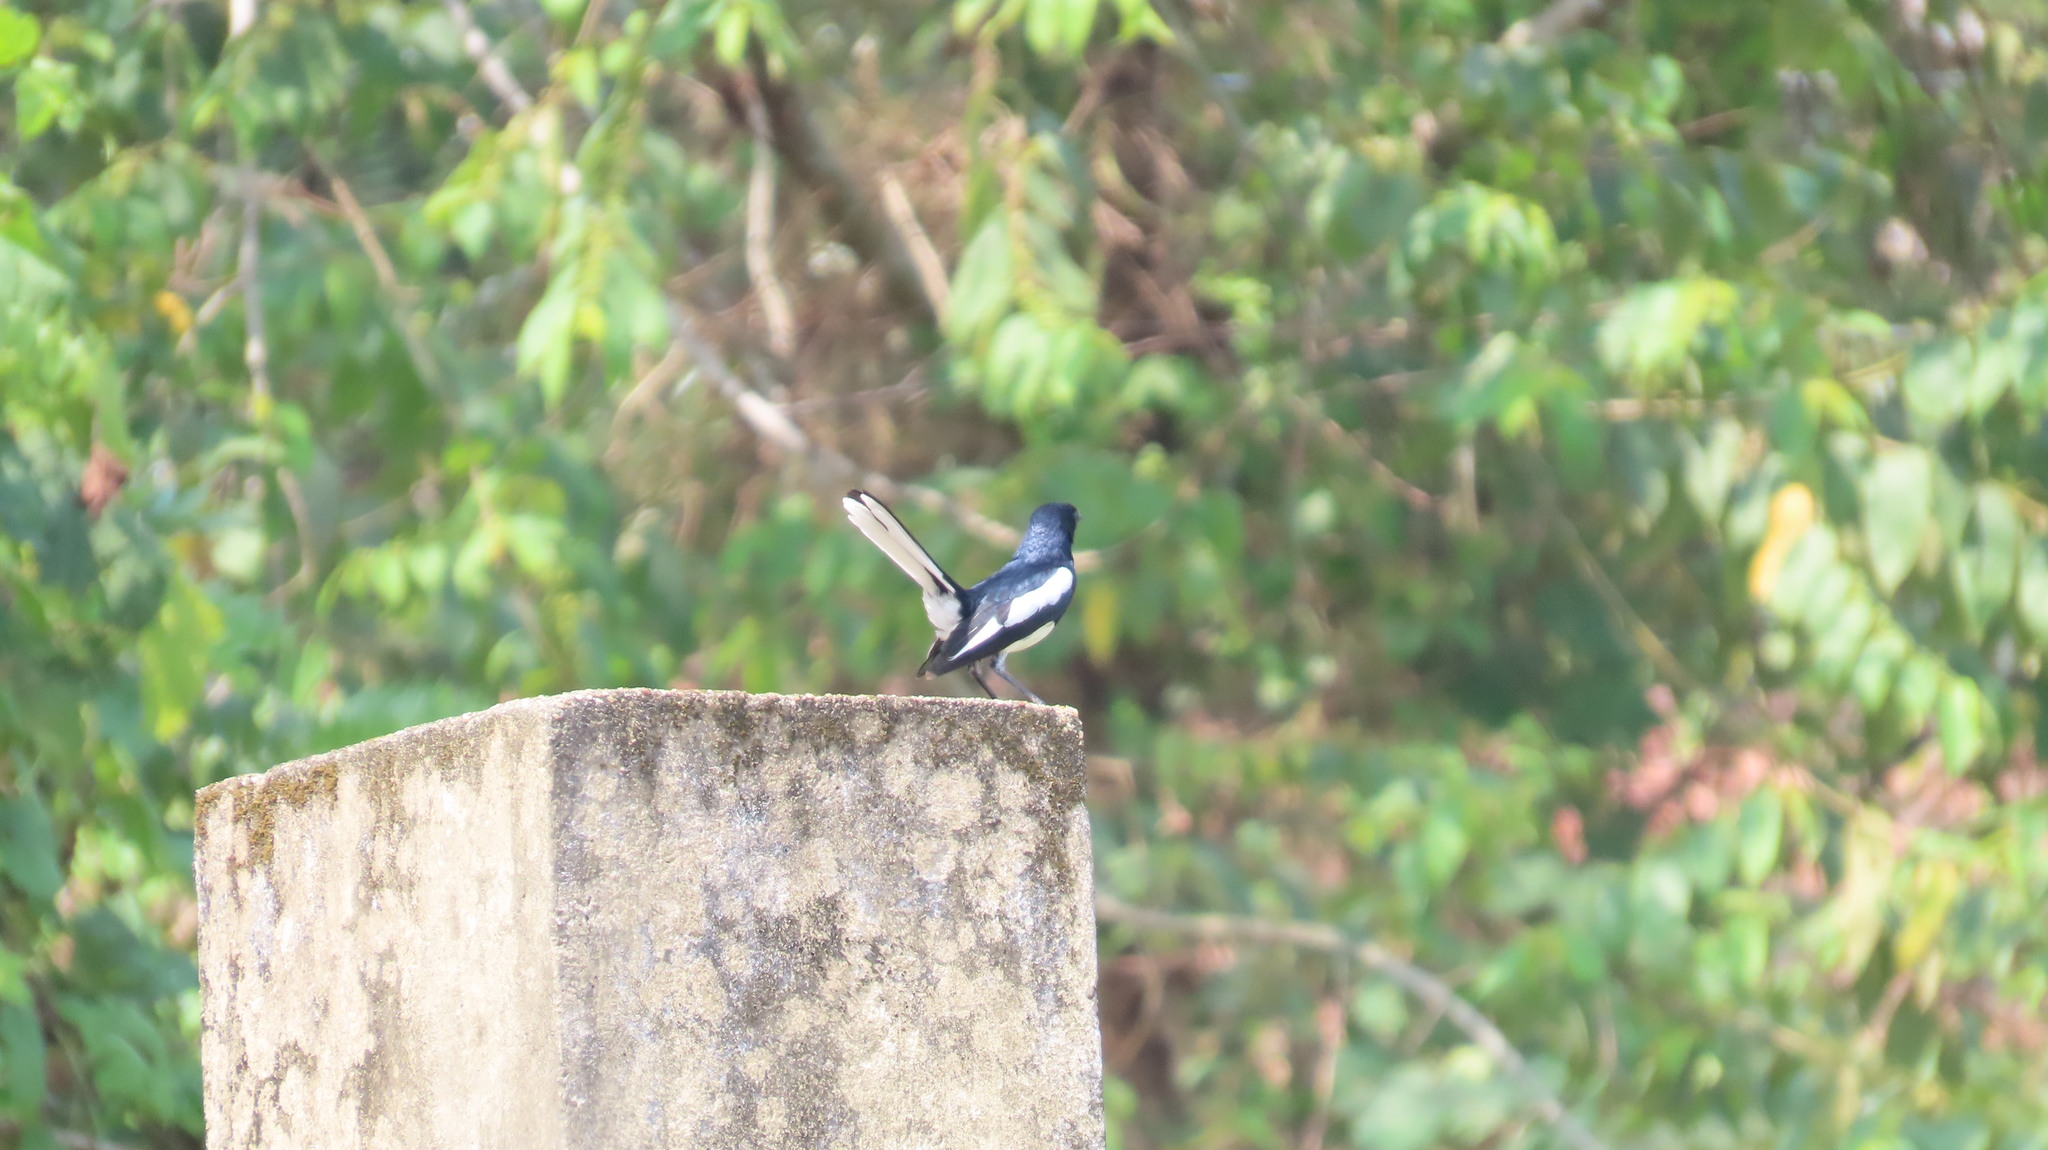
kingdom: Animalia
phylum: Chordata
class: Aves
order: Passeriformes
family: Muscicapidae
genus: Copsychus
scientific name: Copsychus saularis
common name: Oriental magpie-robin
